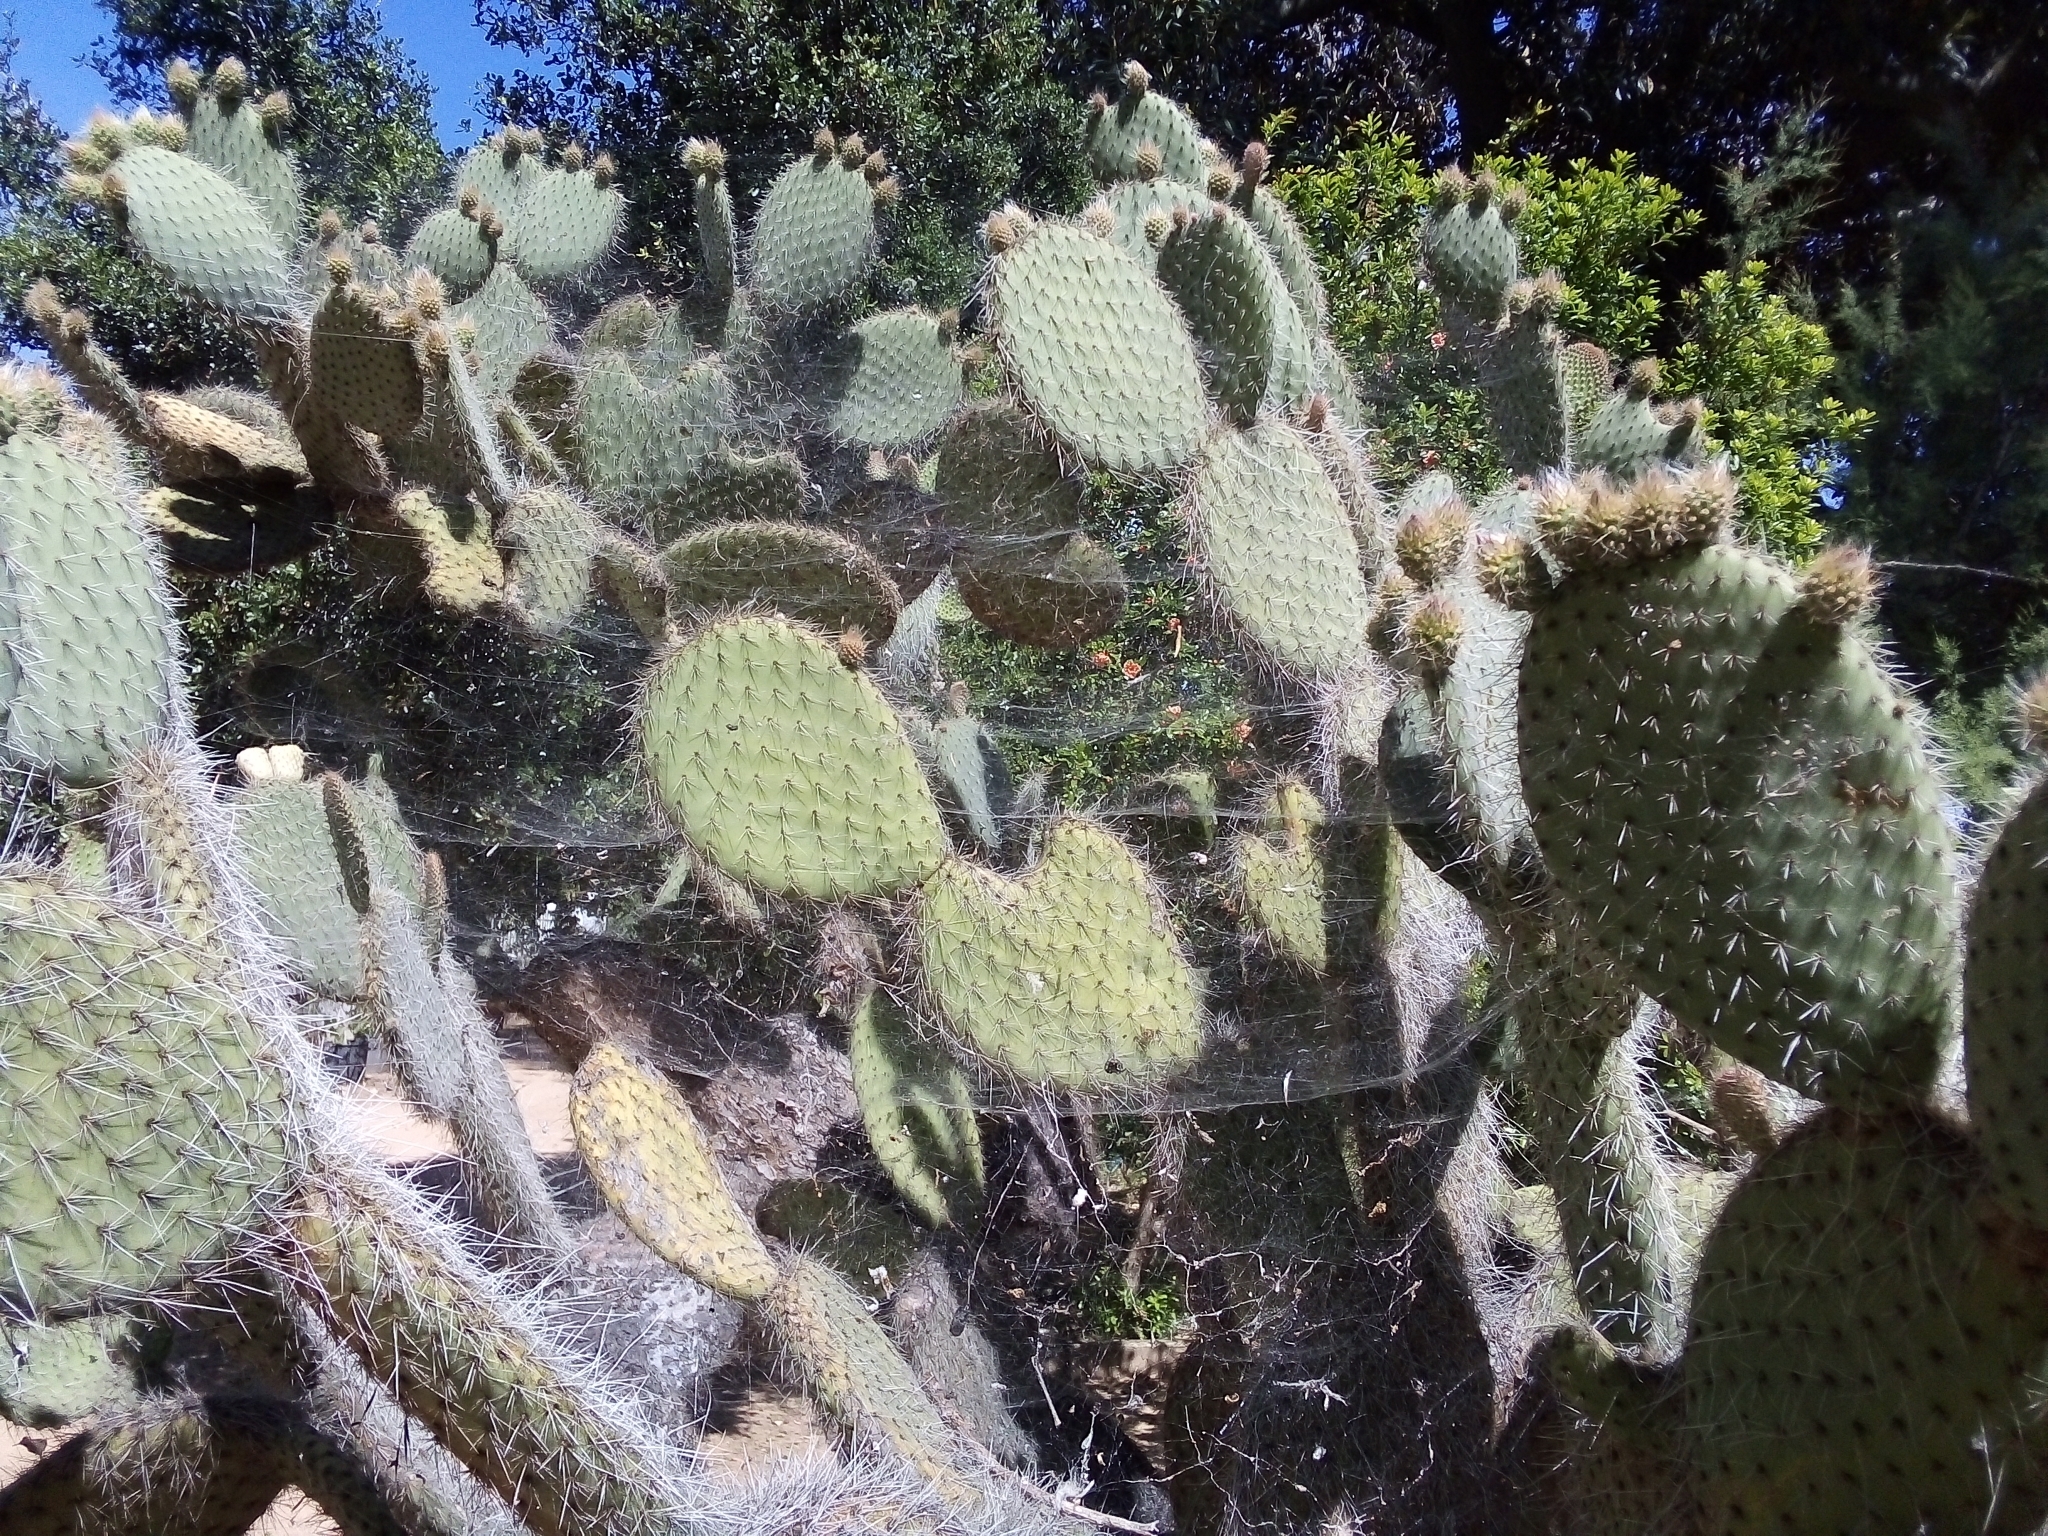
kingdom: Animalia
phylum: Arthropoda
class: Arachnida
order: Araneae
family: Araneidae
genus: Cyrtophora
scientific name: Cyrtophora citricola
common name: Orb weavers
